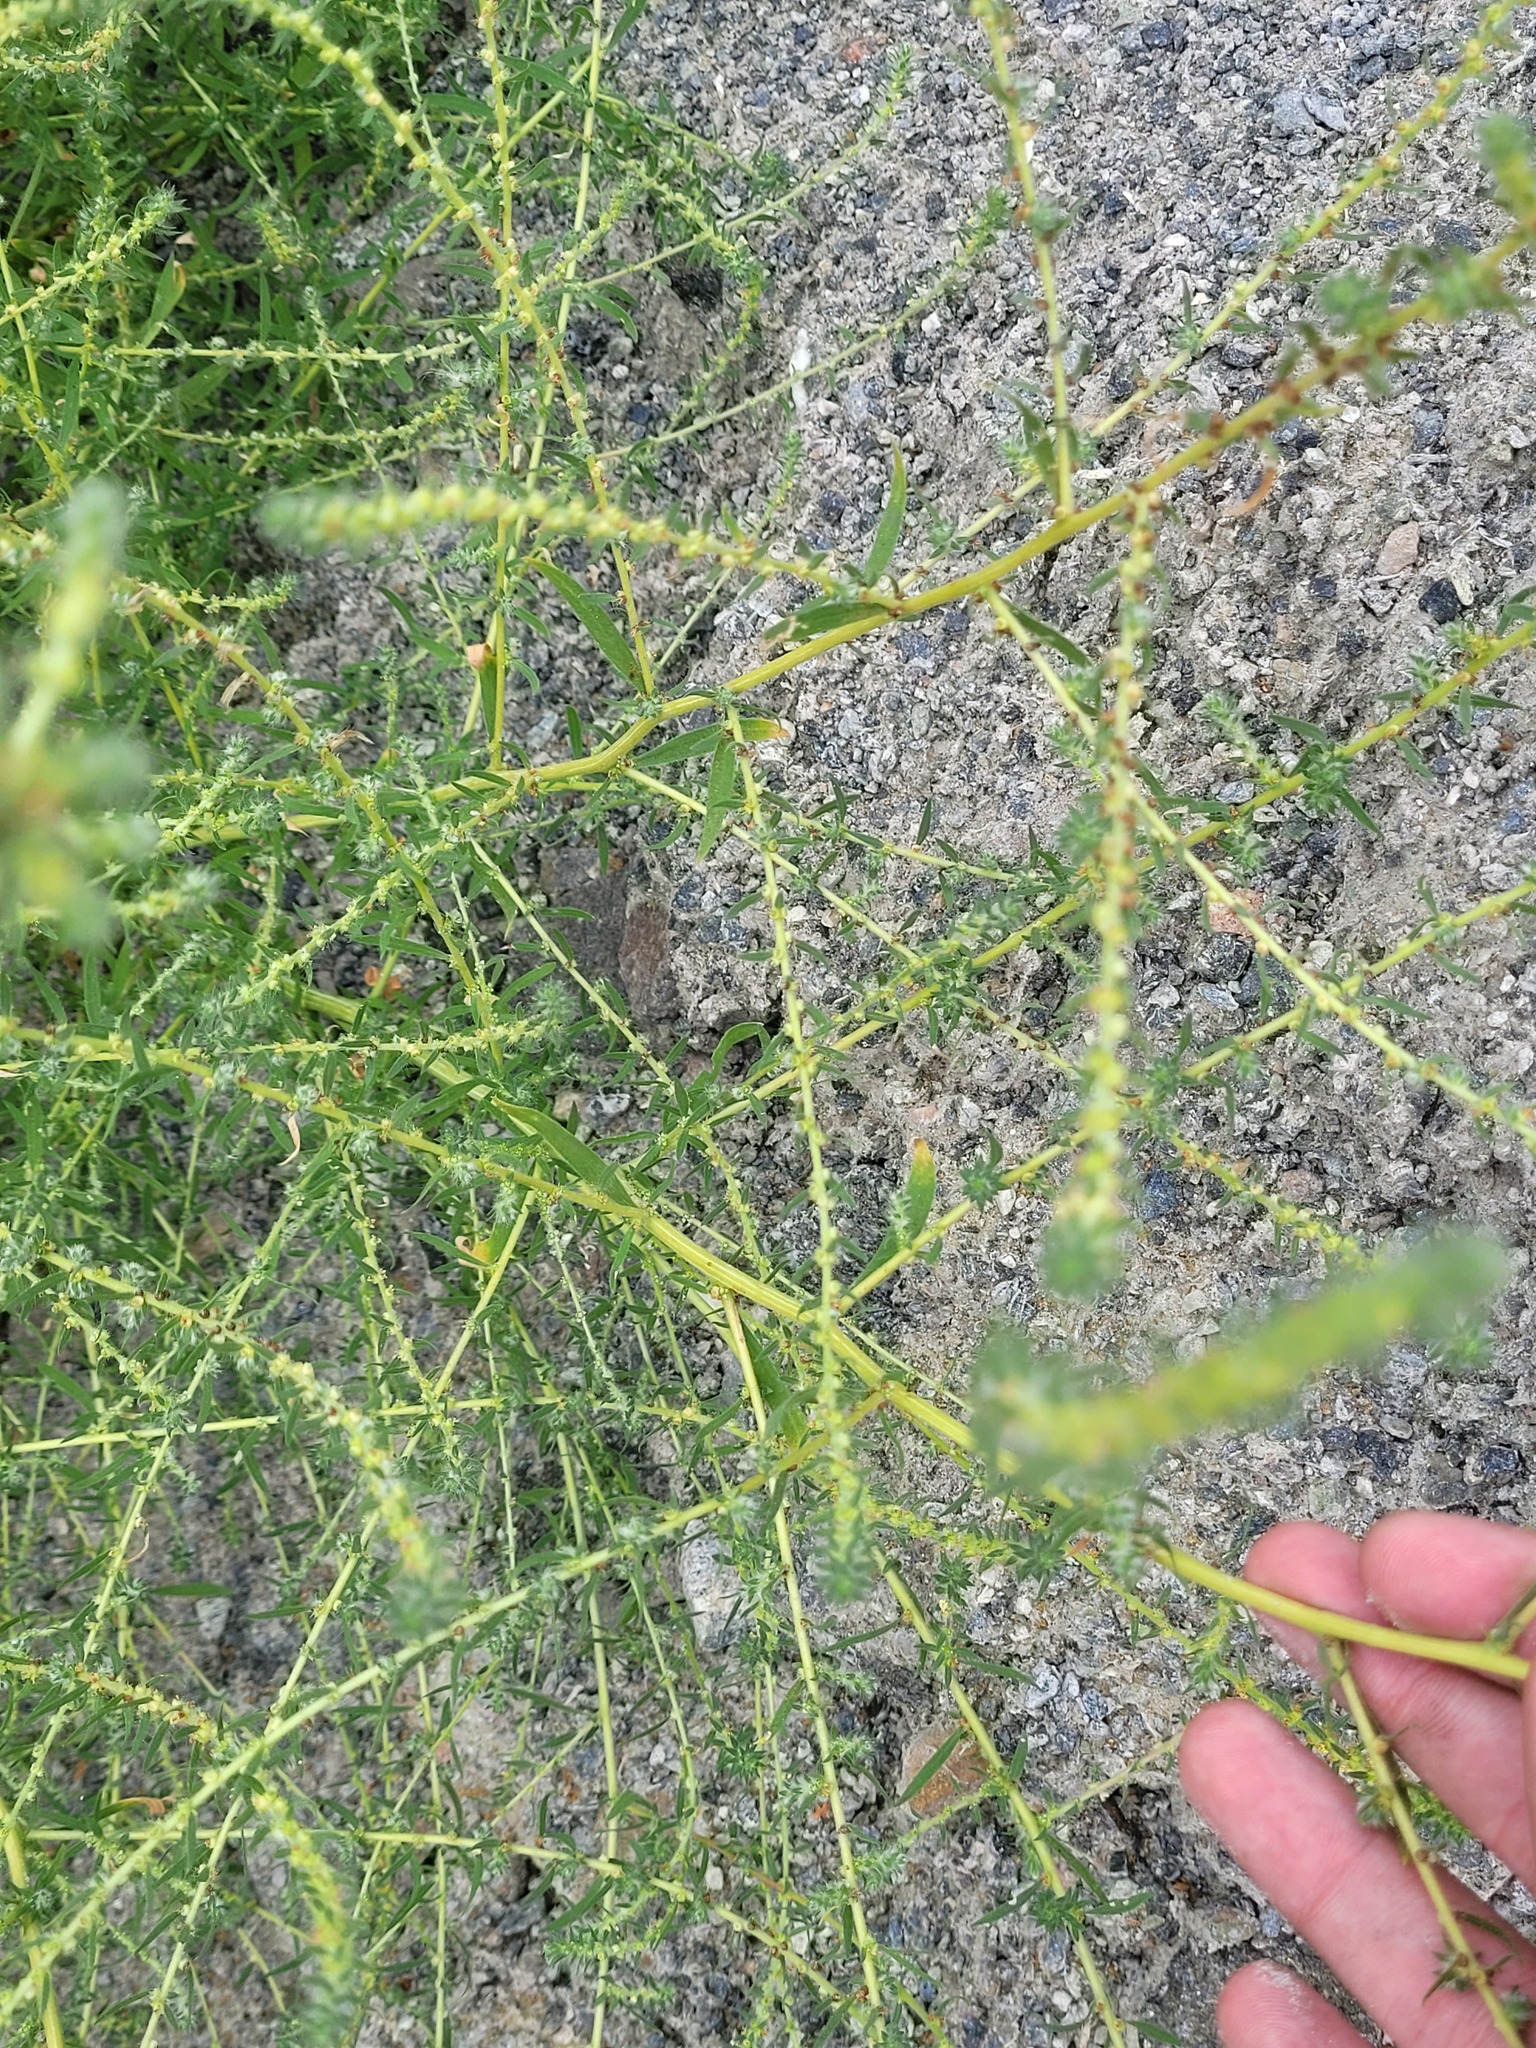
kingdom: Plantae
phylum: Tracheophyta
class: Magnoliopsida
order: Caryophyllales
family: Amaranthaceae
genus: Bassia
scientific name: Bassia scoparia
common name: Belvedere
